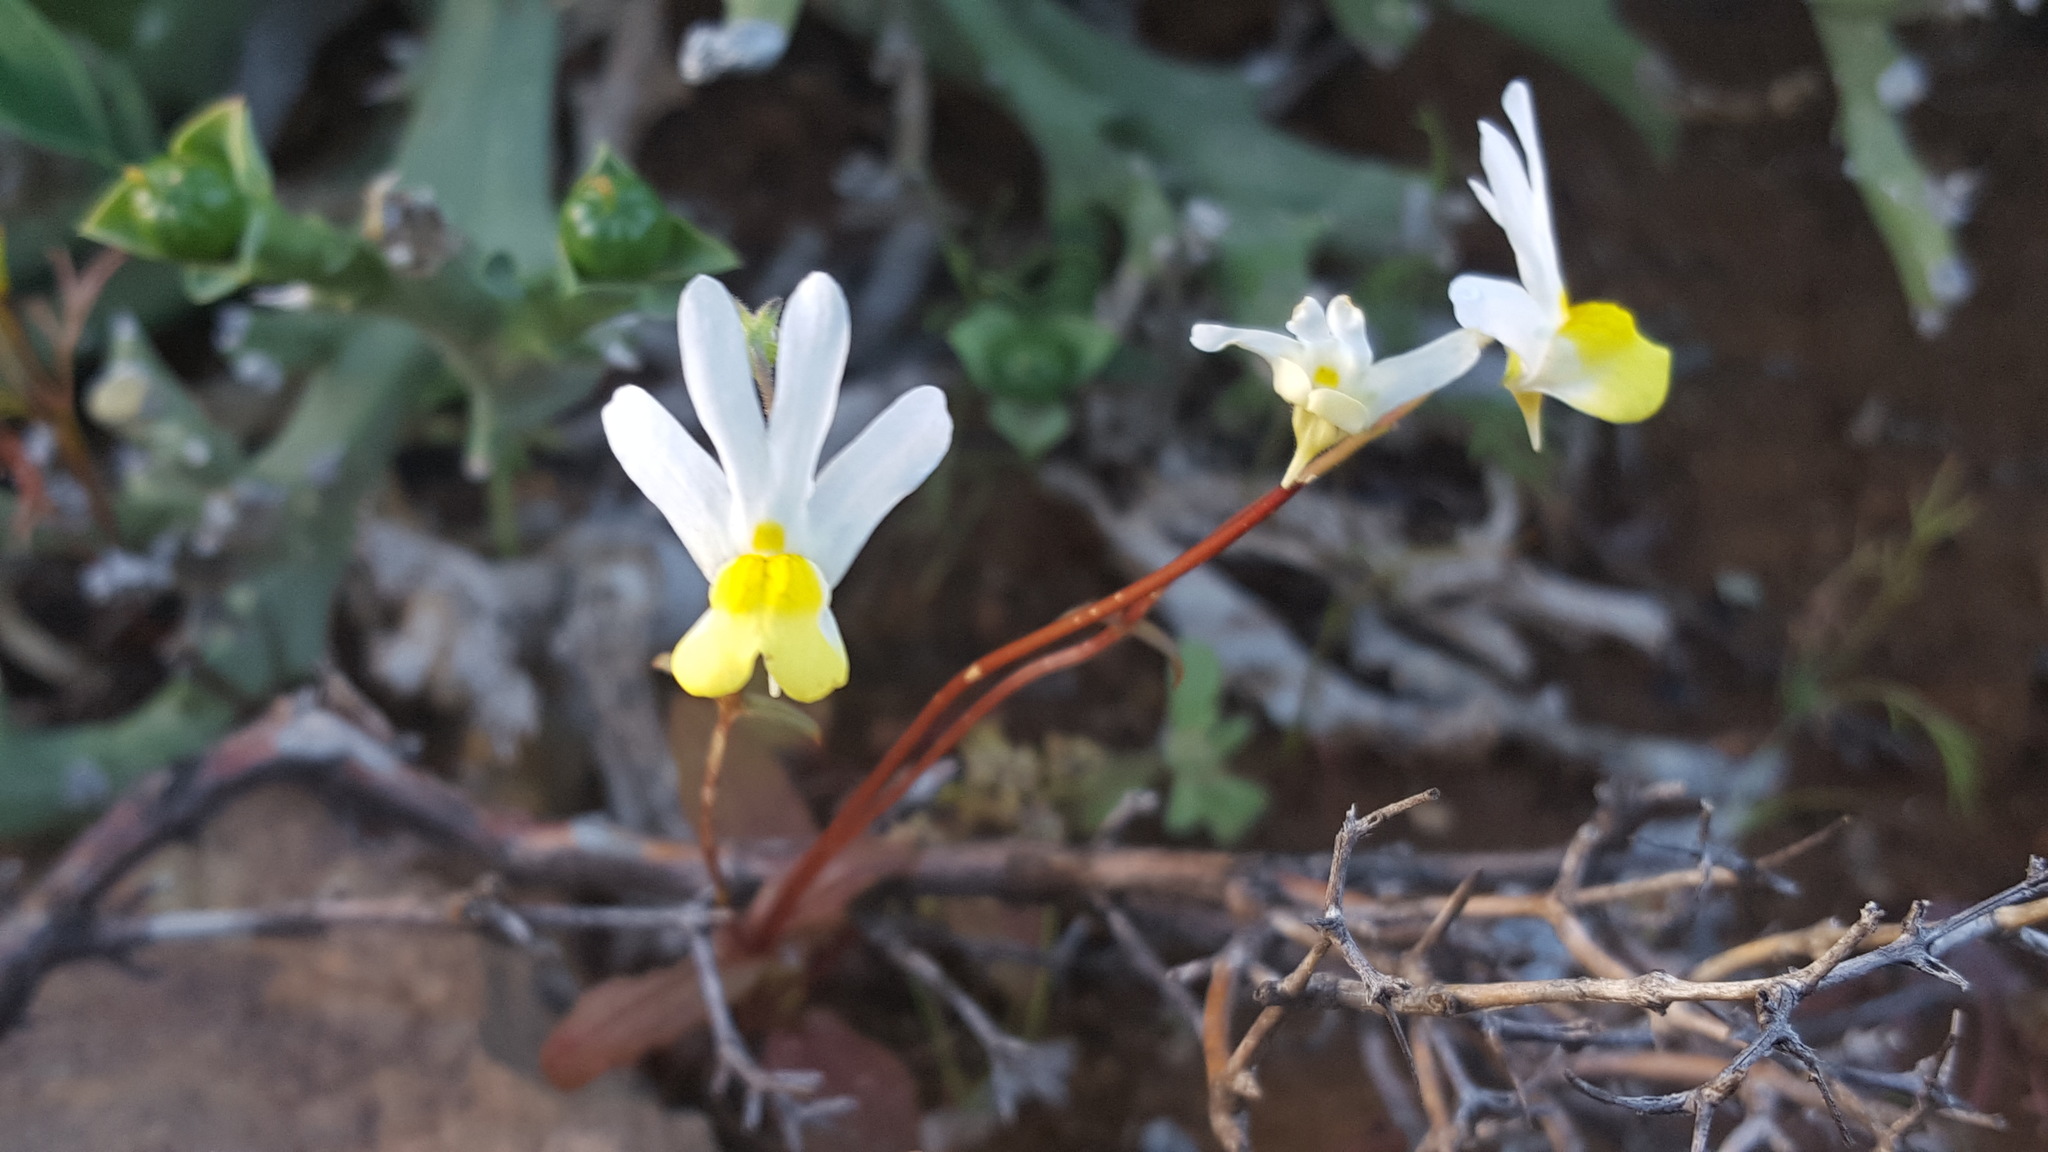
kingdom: Plantae
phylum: Tracheophyta
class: Magnoliopsida
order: Lamiales
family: Scrophulariaceae
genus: Nemesia
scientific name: Nemesia anisocarpa
